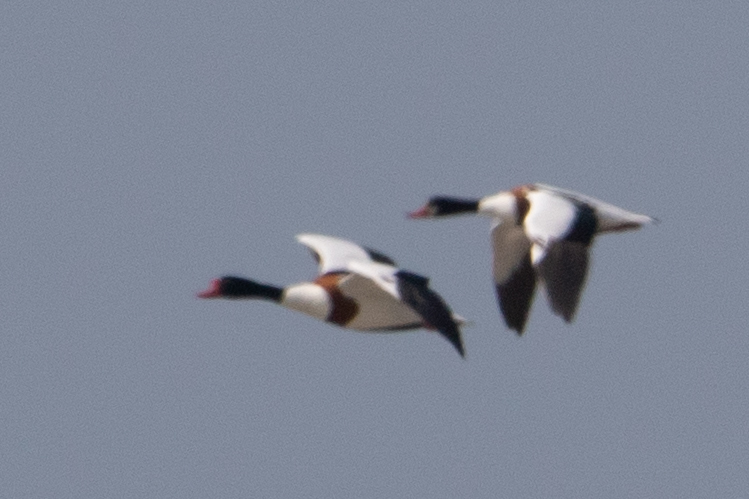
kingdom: Animalia
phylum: Chordata
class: Aves
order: Anseriformes
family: Anatidae
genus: Tadorna
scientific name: Tadorna tadorna
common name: Common shelduck
